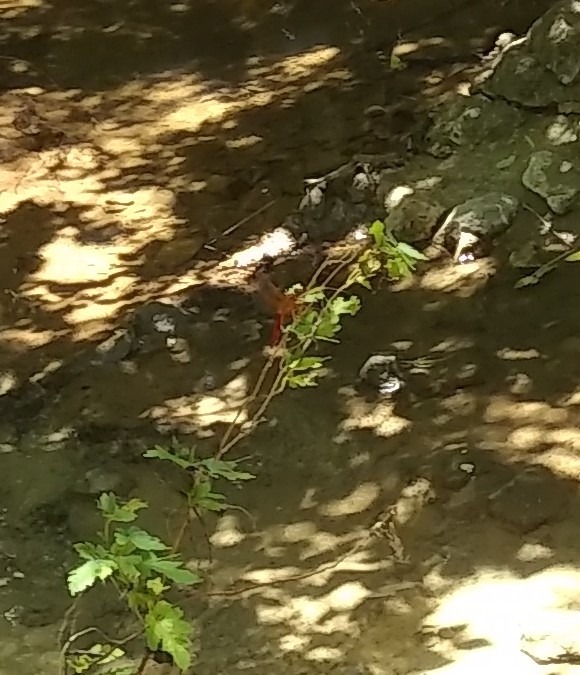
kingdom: Animalia
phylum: Arthropoda
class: Insecta
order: Odonata
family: Libellulidae
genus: Libellula
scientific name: Libellula croceipennis
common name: Neon skimmer
